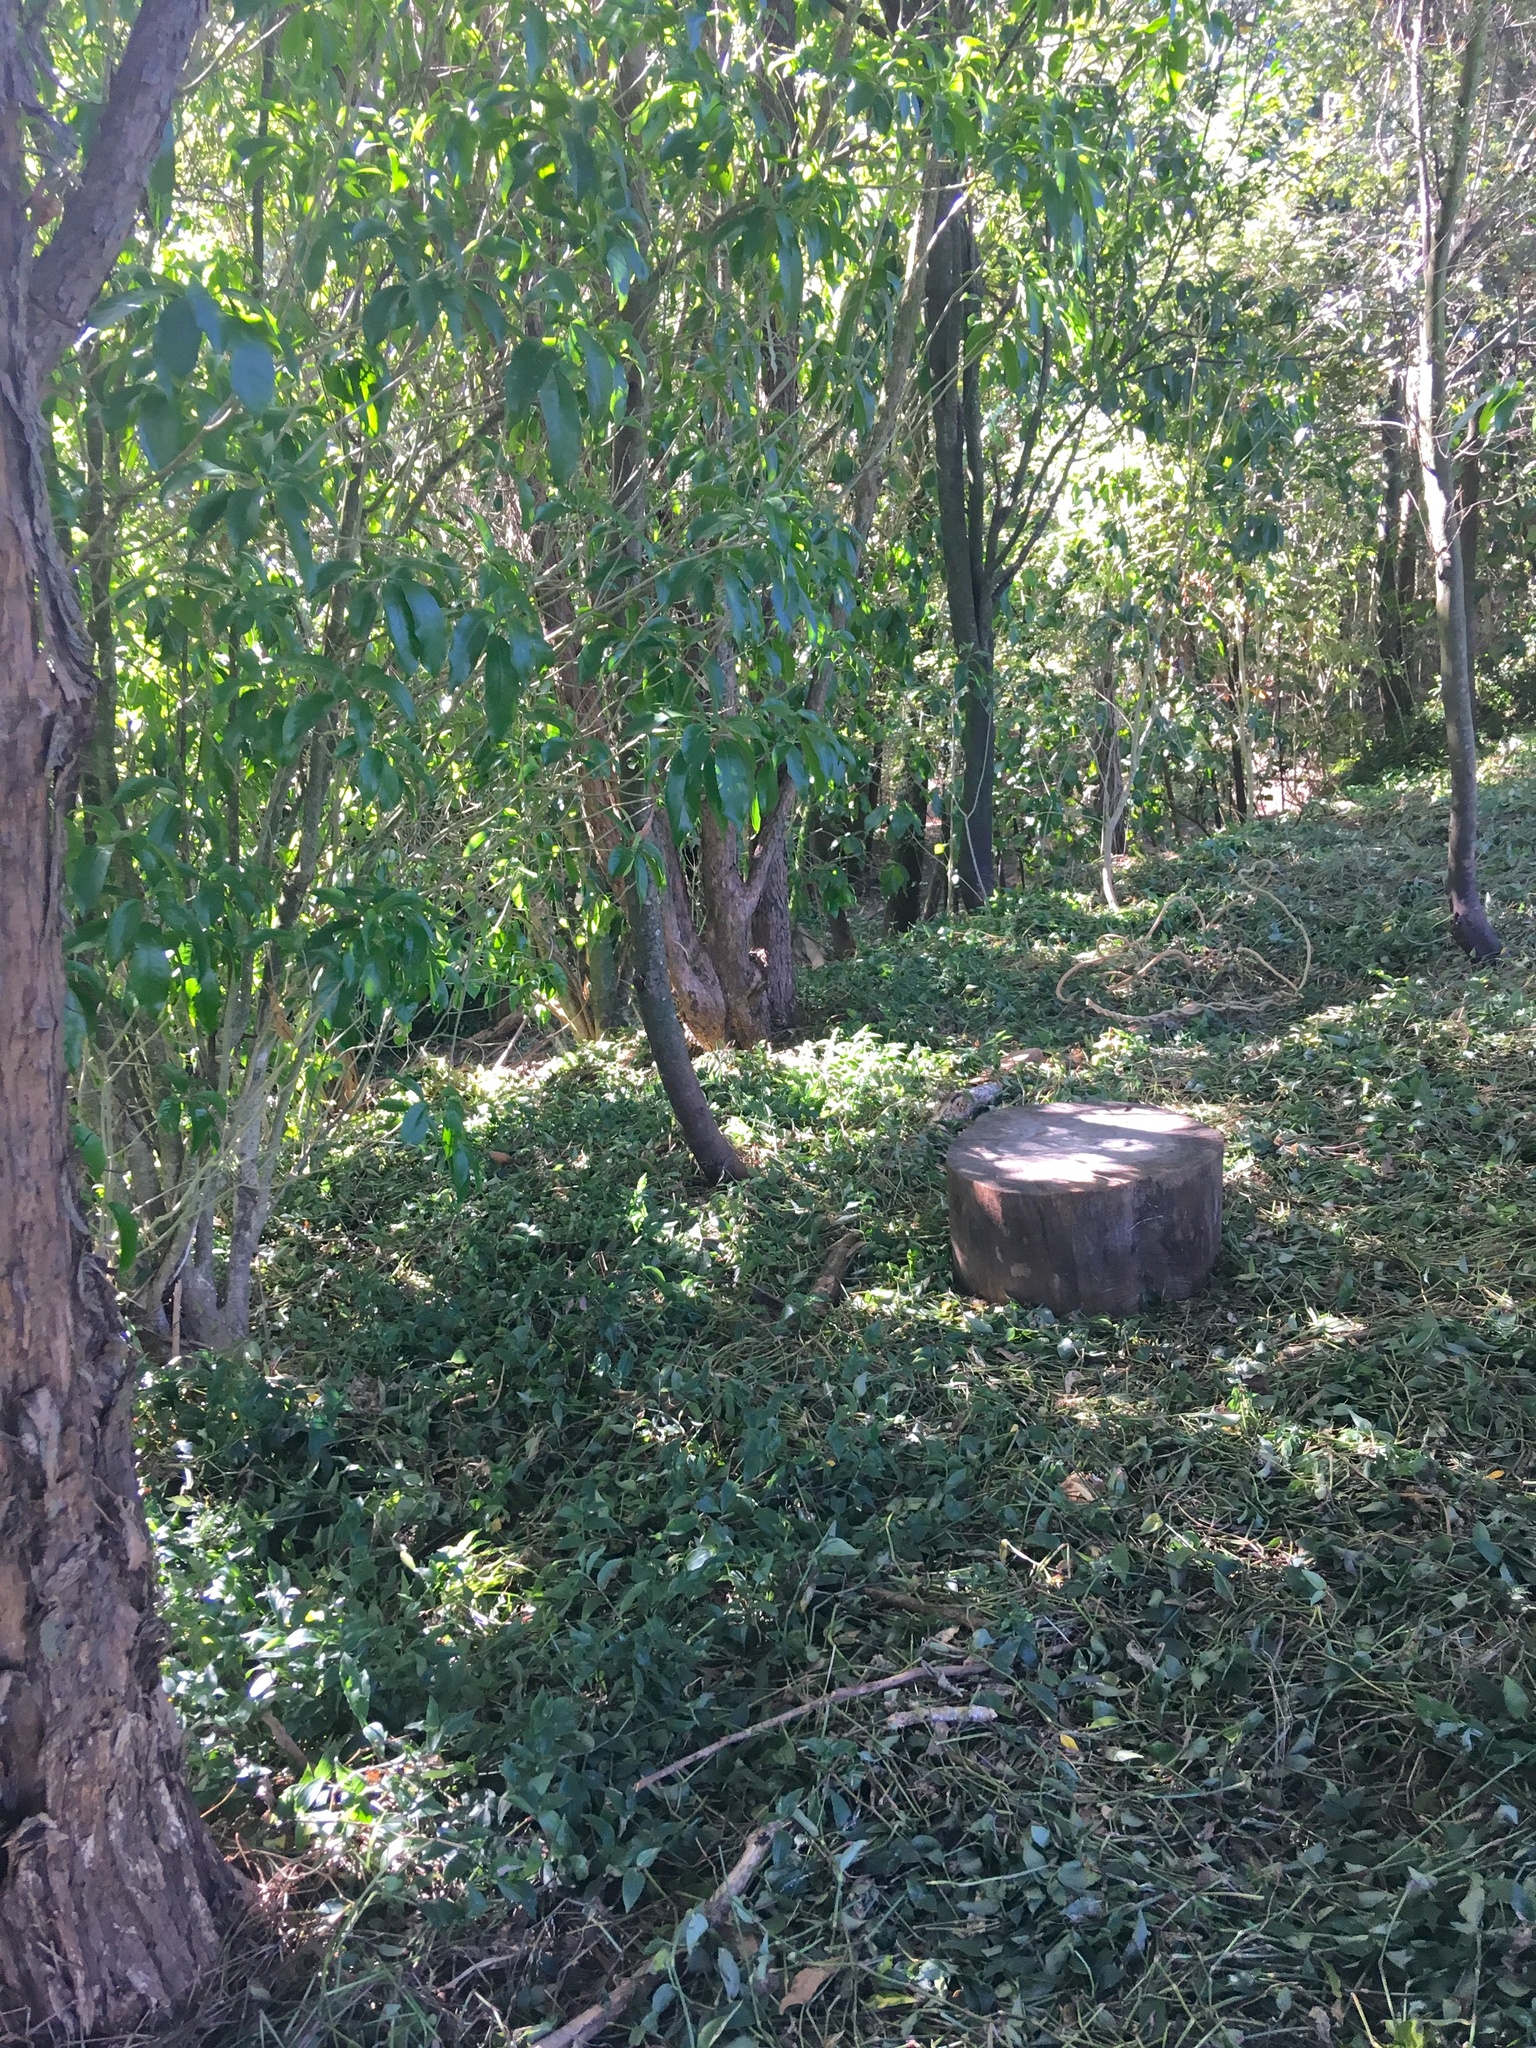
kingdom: Plantae
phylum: Tracheophyta
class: Liliopsida
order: Commelinales
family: Commelinaceae
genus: Tradescantia
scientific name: Tradescantia fluminensis
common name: Wandering-jew
